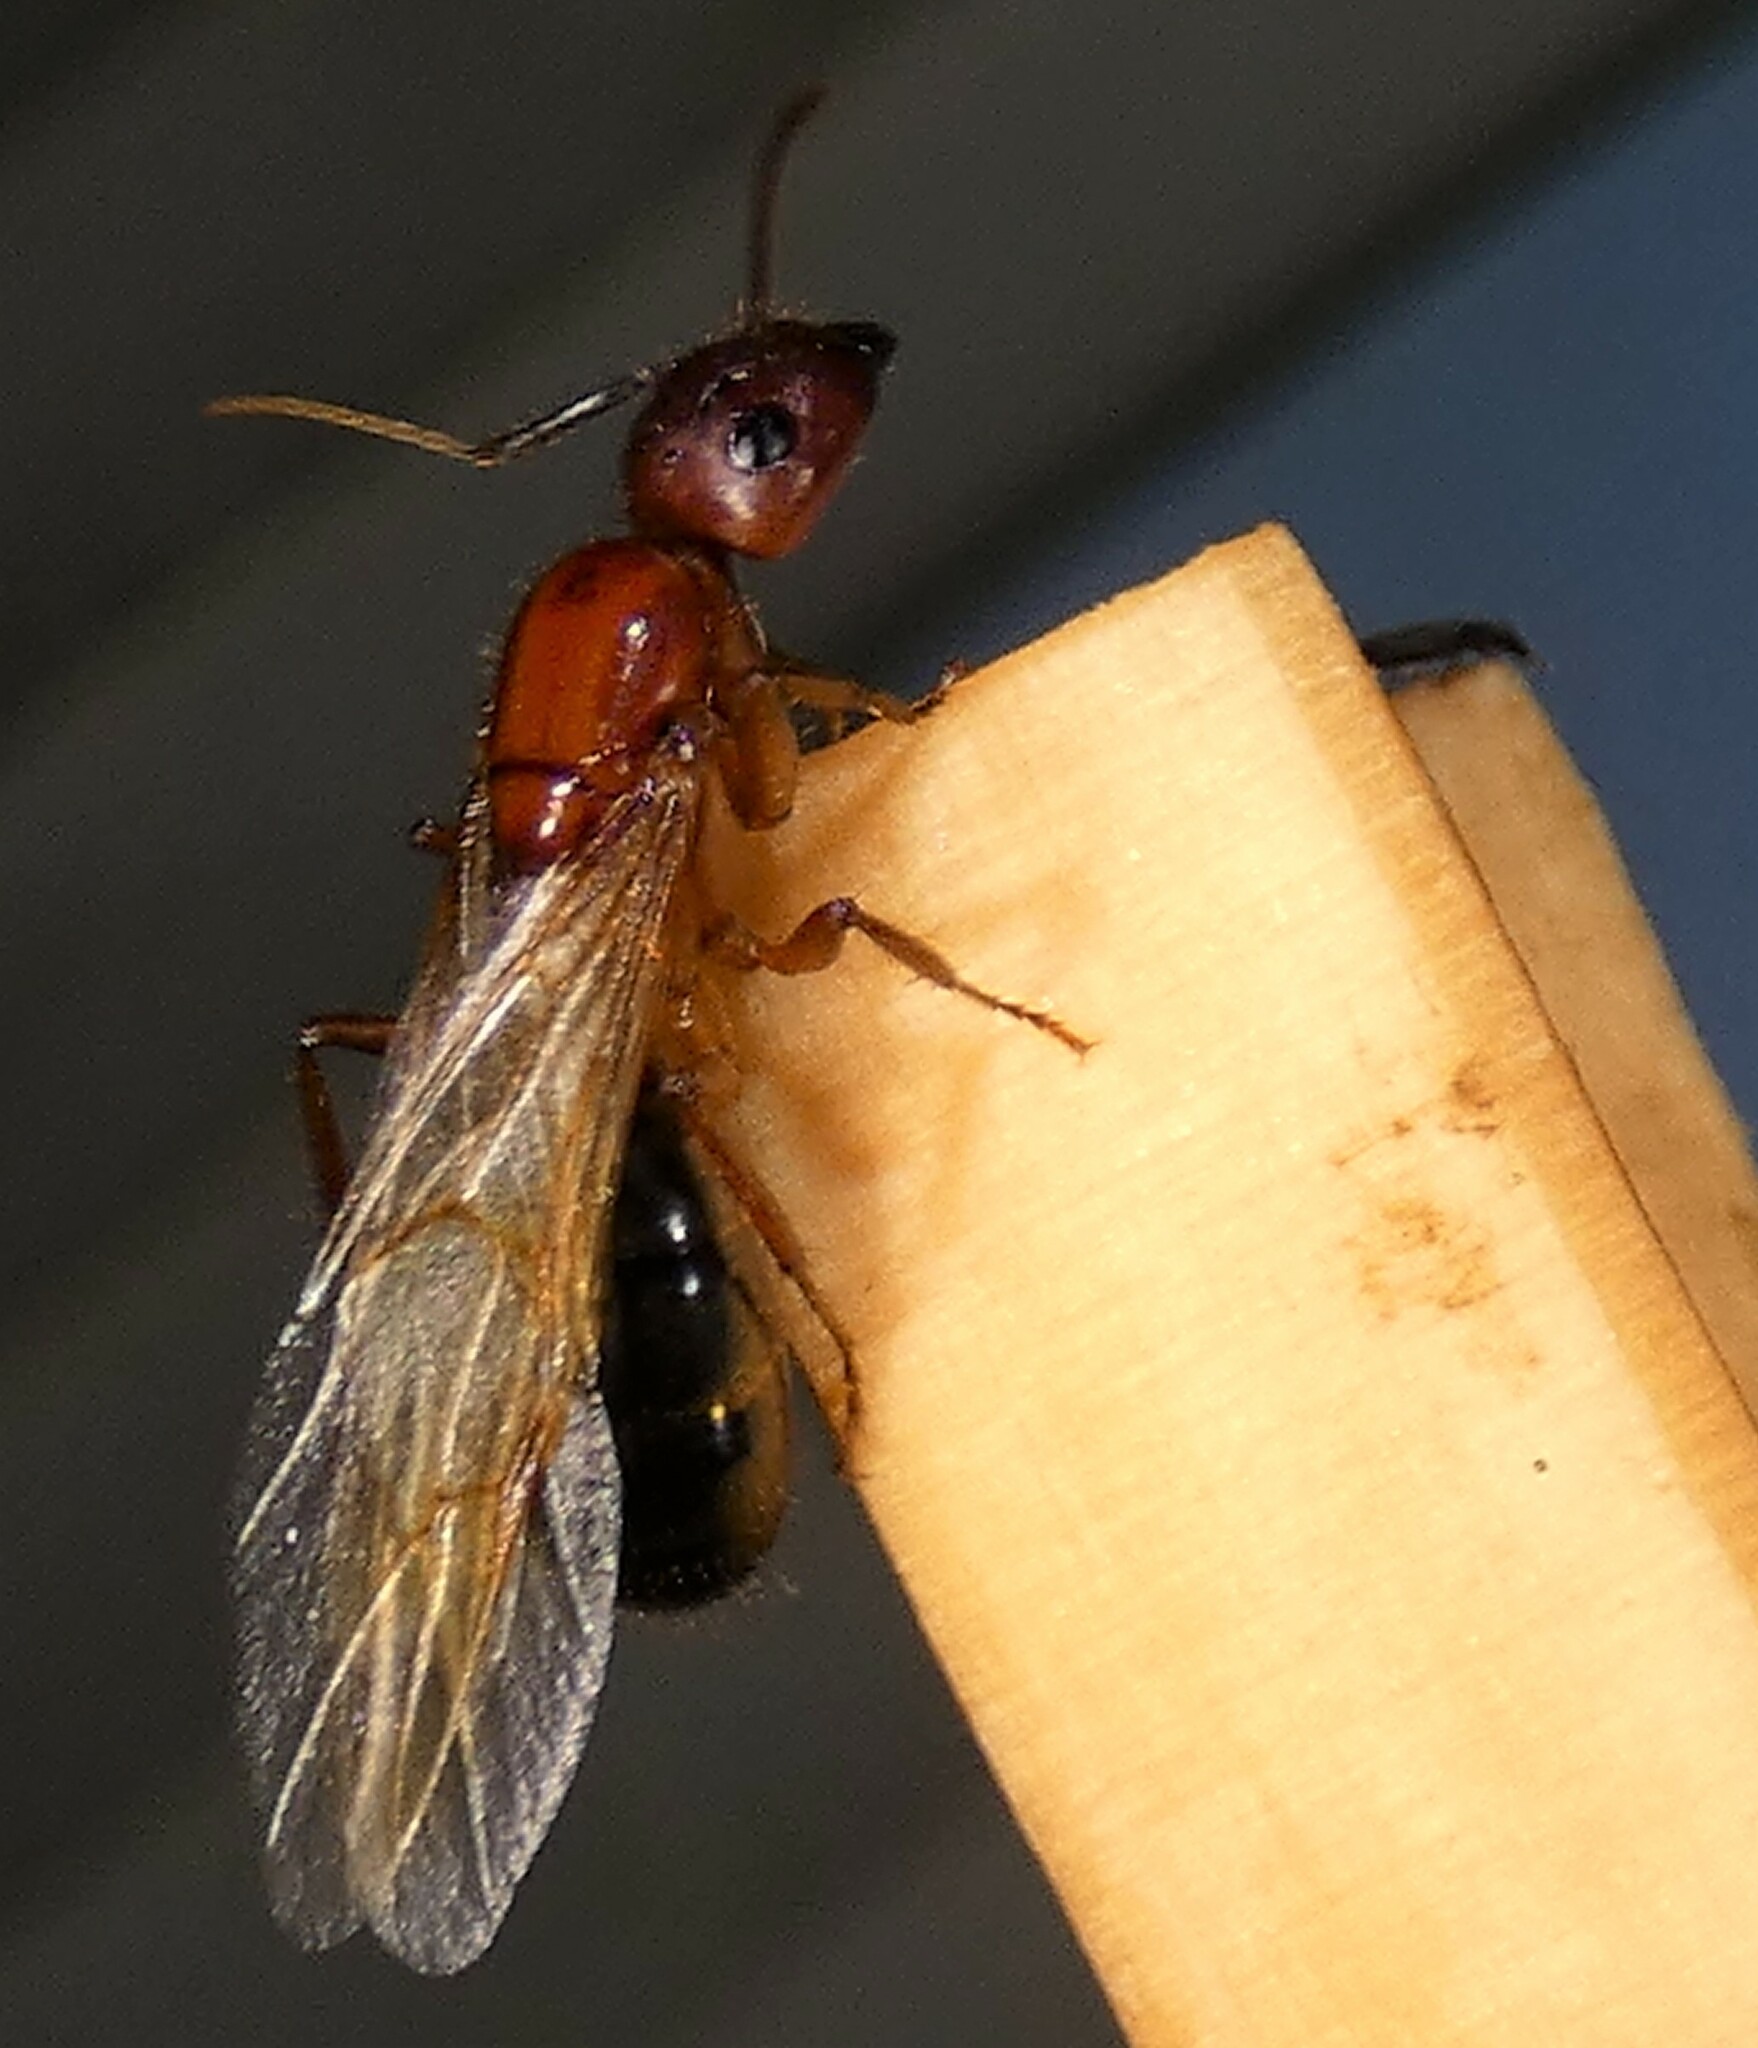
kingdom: Animalia
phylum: Arthropoda
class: Insecta
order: Hymenoptera
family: Formicidae
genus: Camponotus
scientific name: Camponotus floridanus
